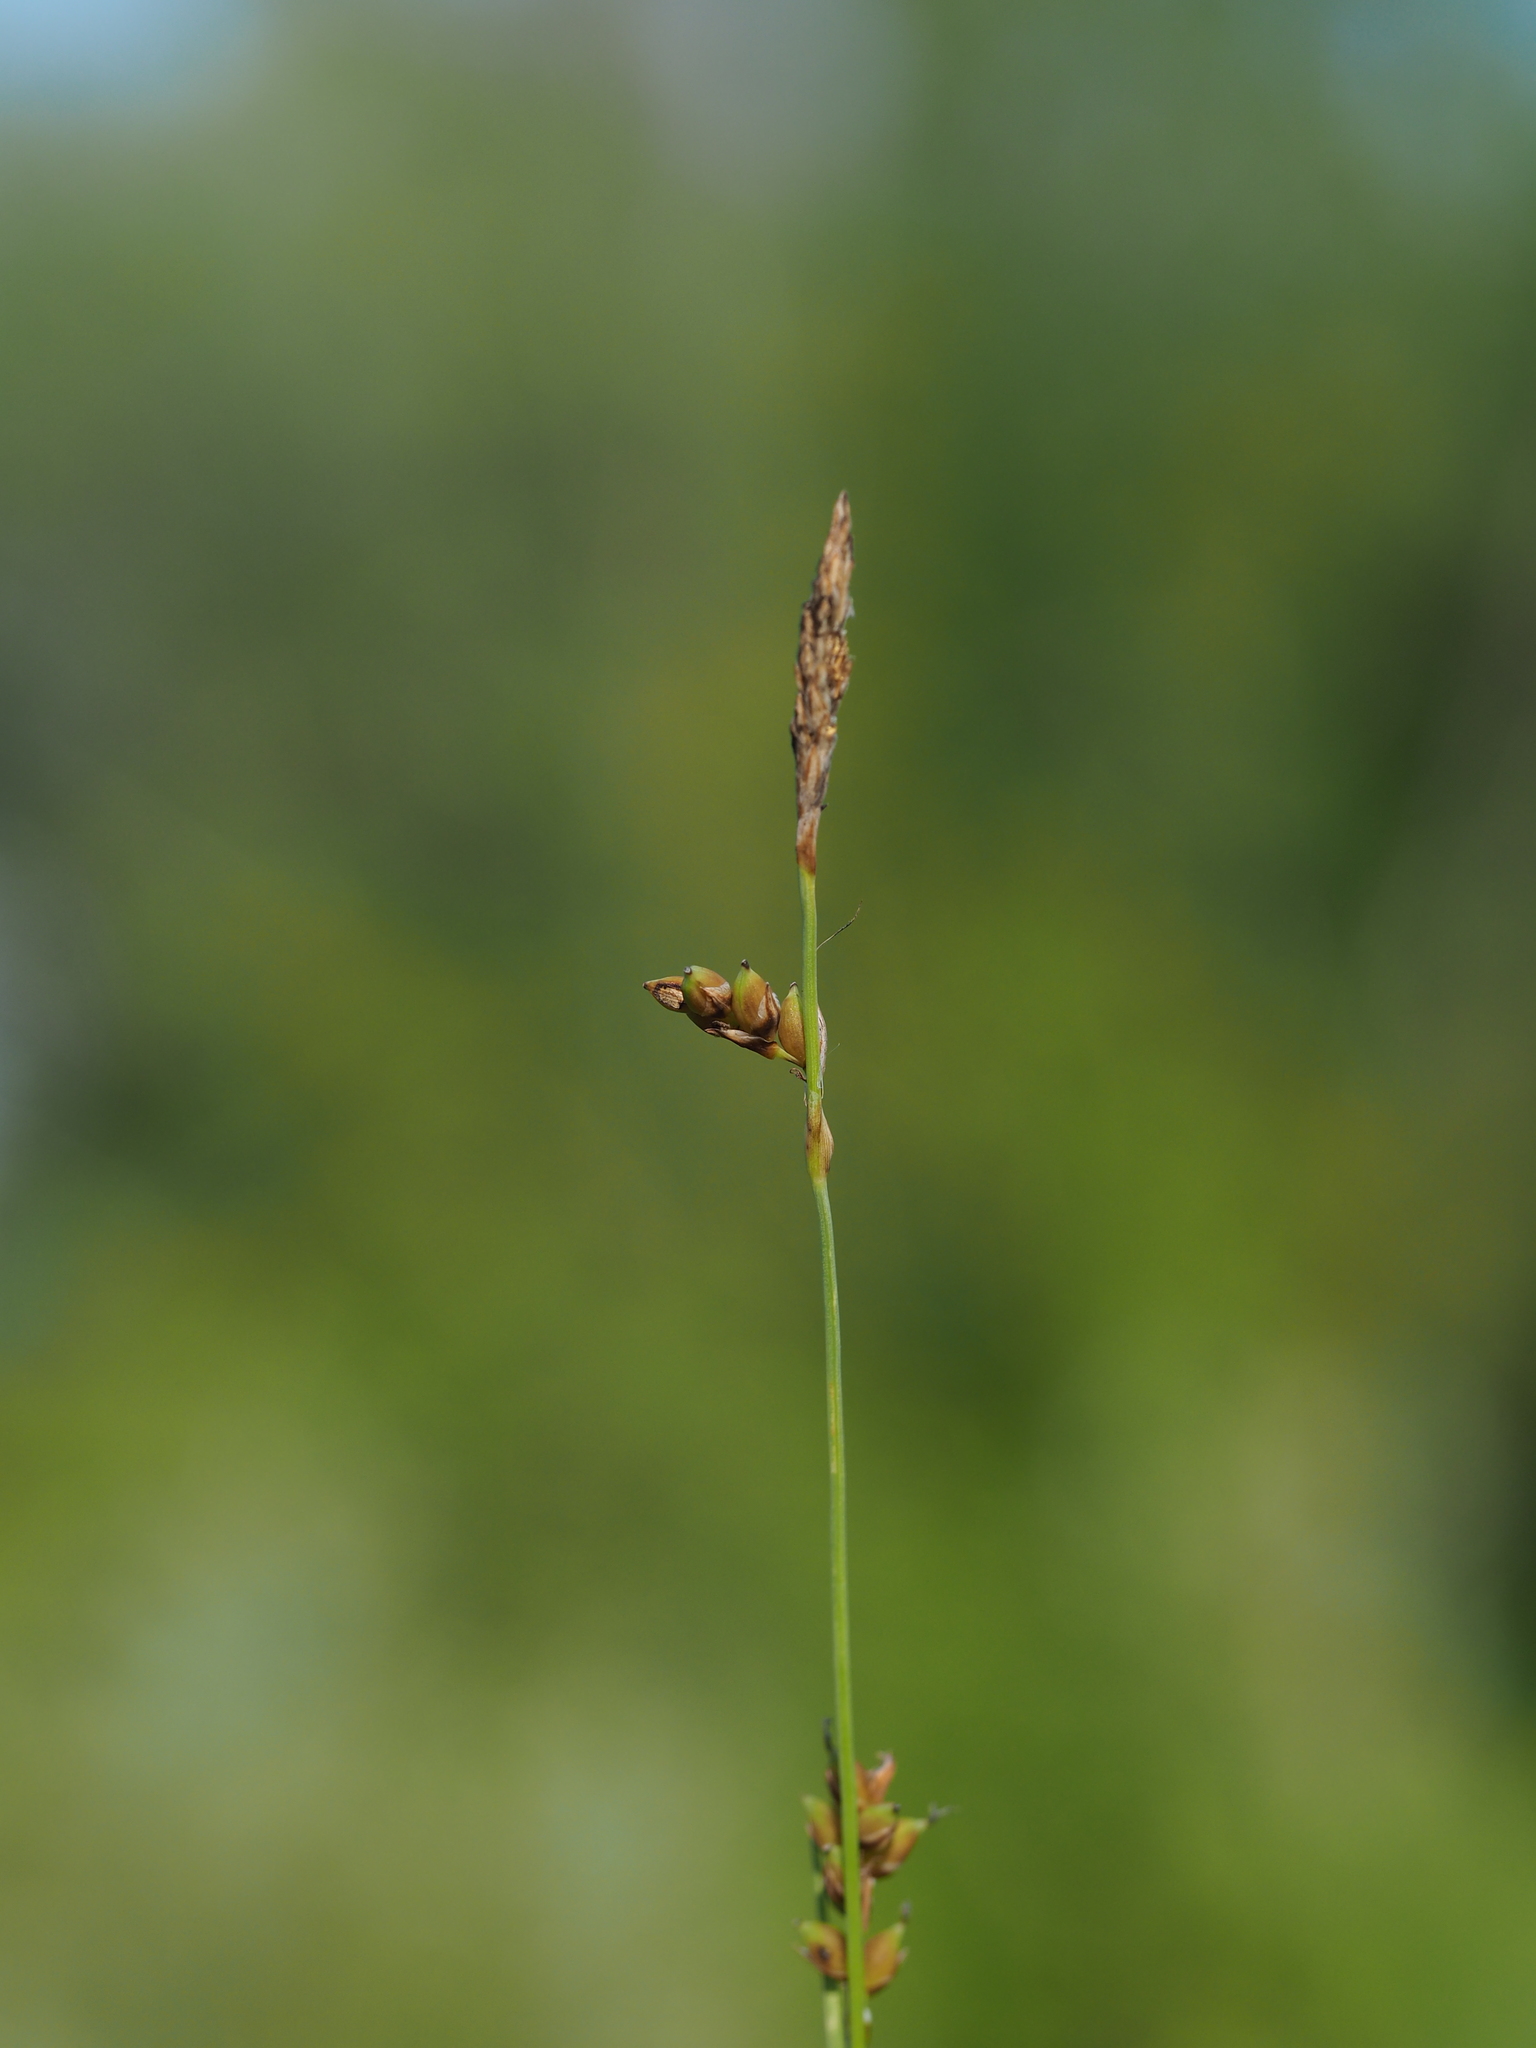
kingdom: Plantae
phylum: Tracheophyta
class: Liliopsida
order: Poales
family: Cyperaceae
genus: Carex
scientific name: Carex panicea
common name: Carnation sedge
